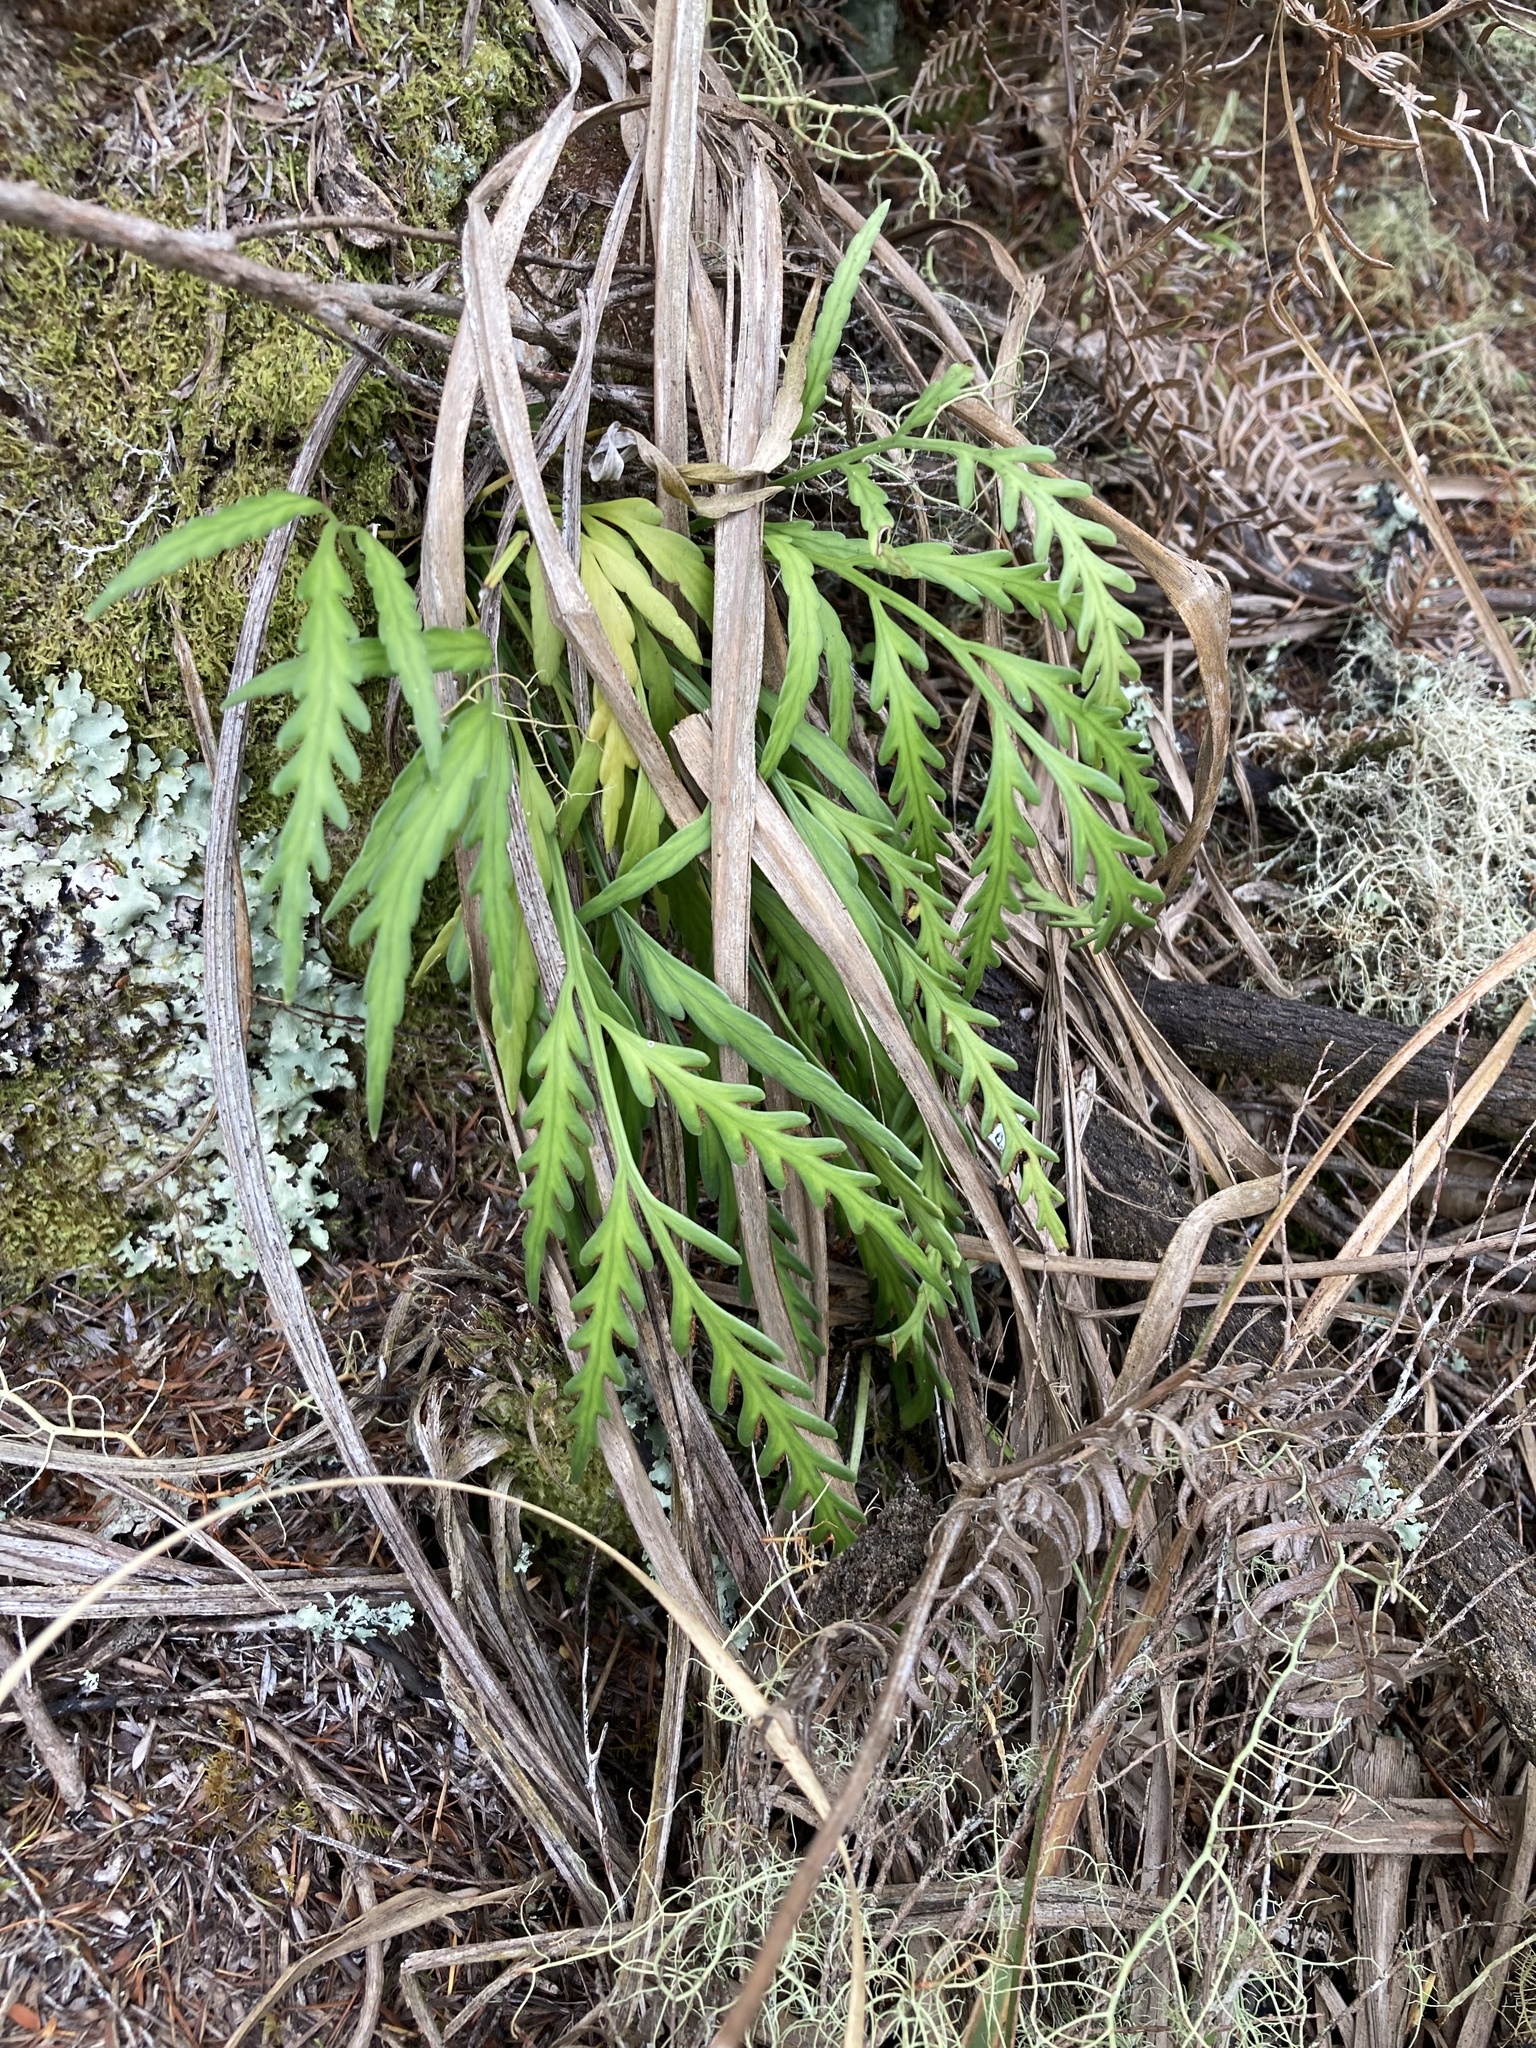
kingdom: Plantae
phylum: Tracheophyta
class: Polypodiopsida
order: Polypodiales
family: Aspleniaceae
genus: Asplenium
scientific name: Asplenium flaccidum
